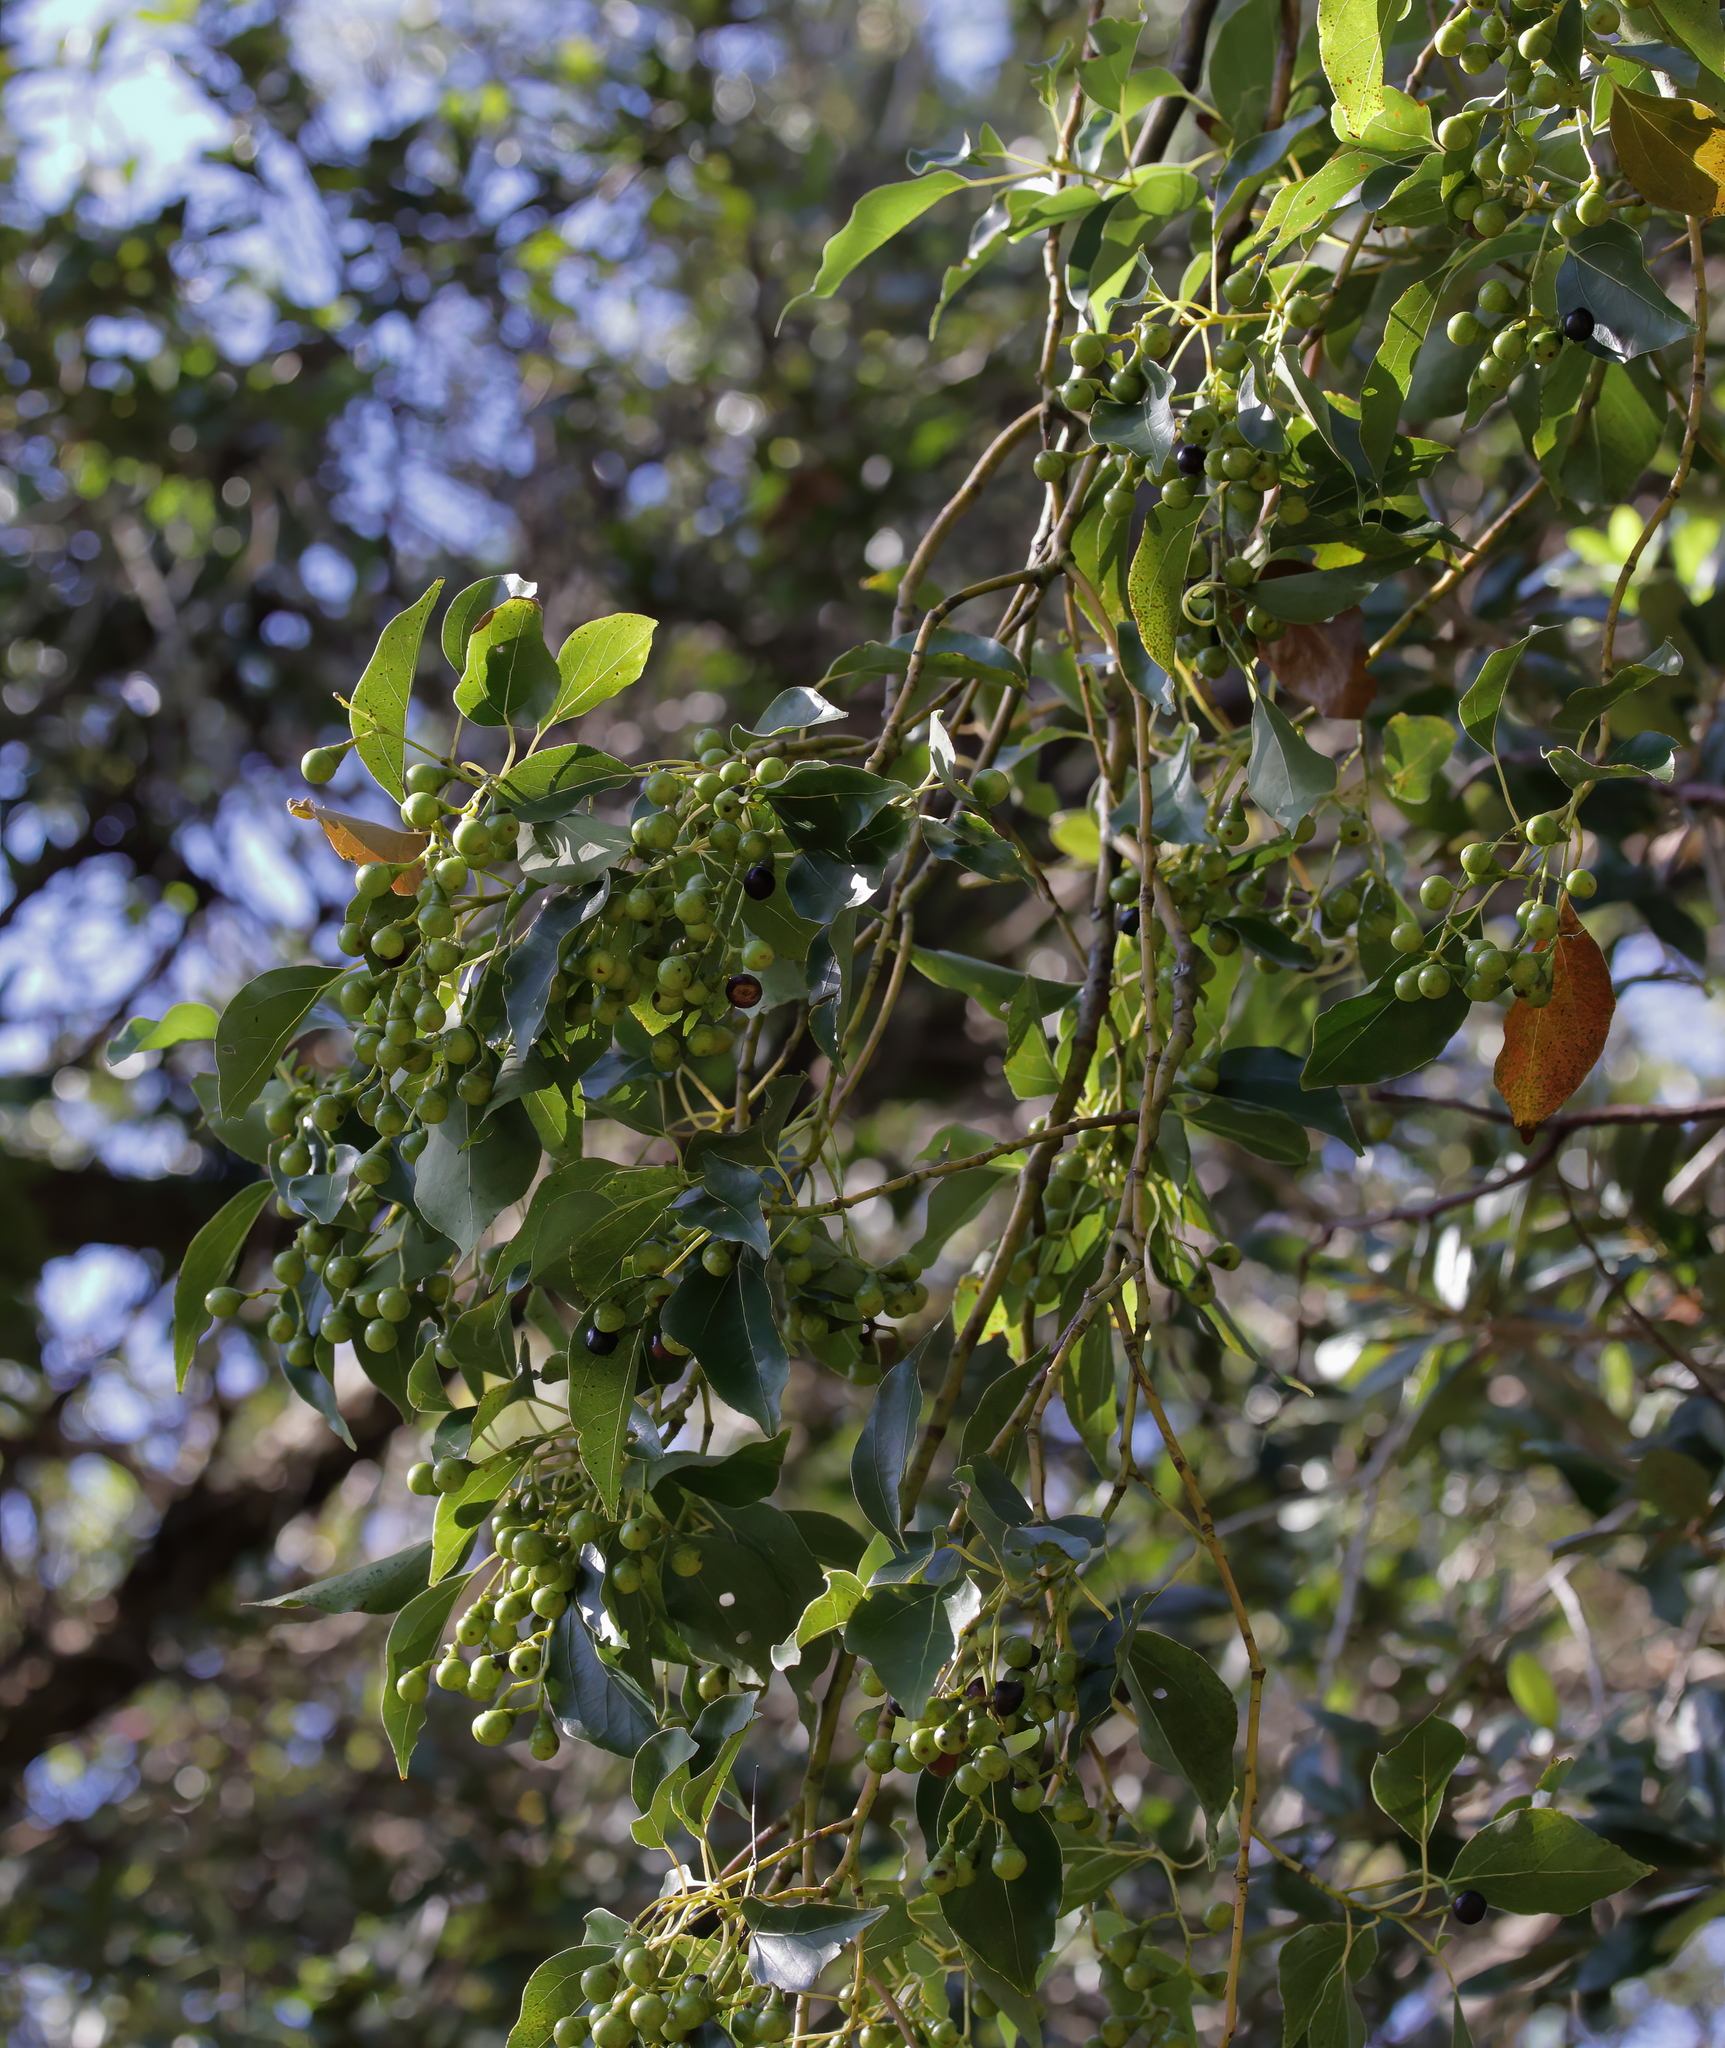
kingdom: Plantae
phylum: Tracheophyta
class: Magnoliopsida
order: Laurales
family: Lauraceae
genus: Cinnamomum
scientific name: Cinnamomum camphora
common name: Camphortree
